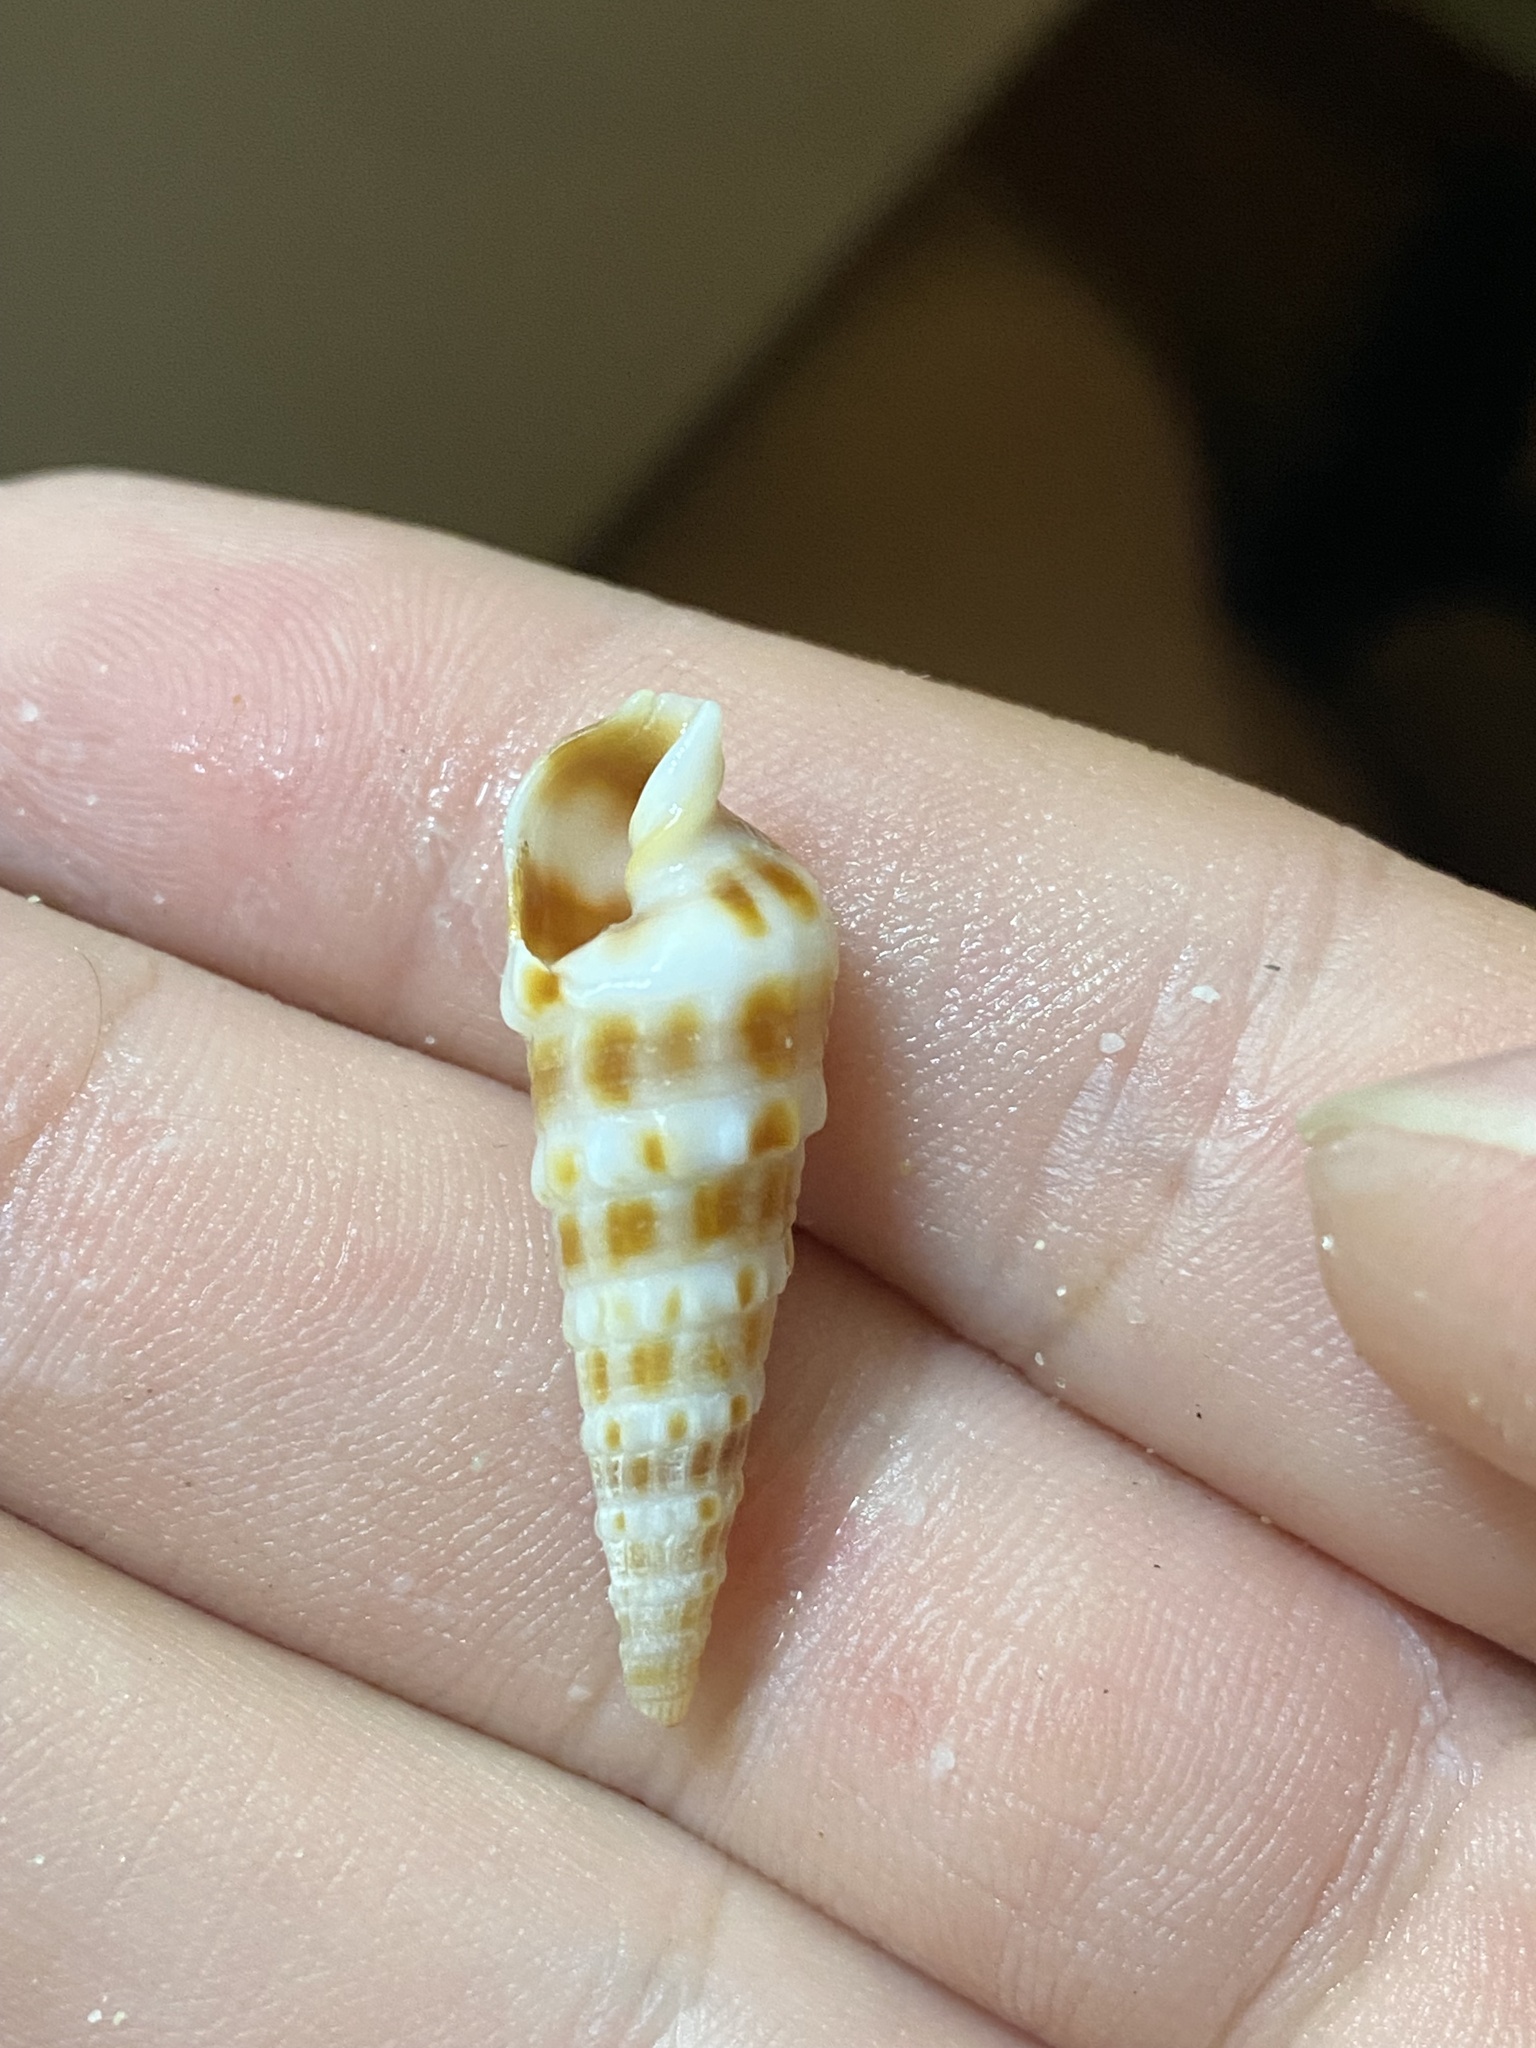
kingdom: Animalia
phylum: Mollusca
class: Gastropoda
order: Neogastropoda
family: Terebridae
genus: Neoterebra
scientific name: Neoterebra variegata
